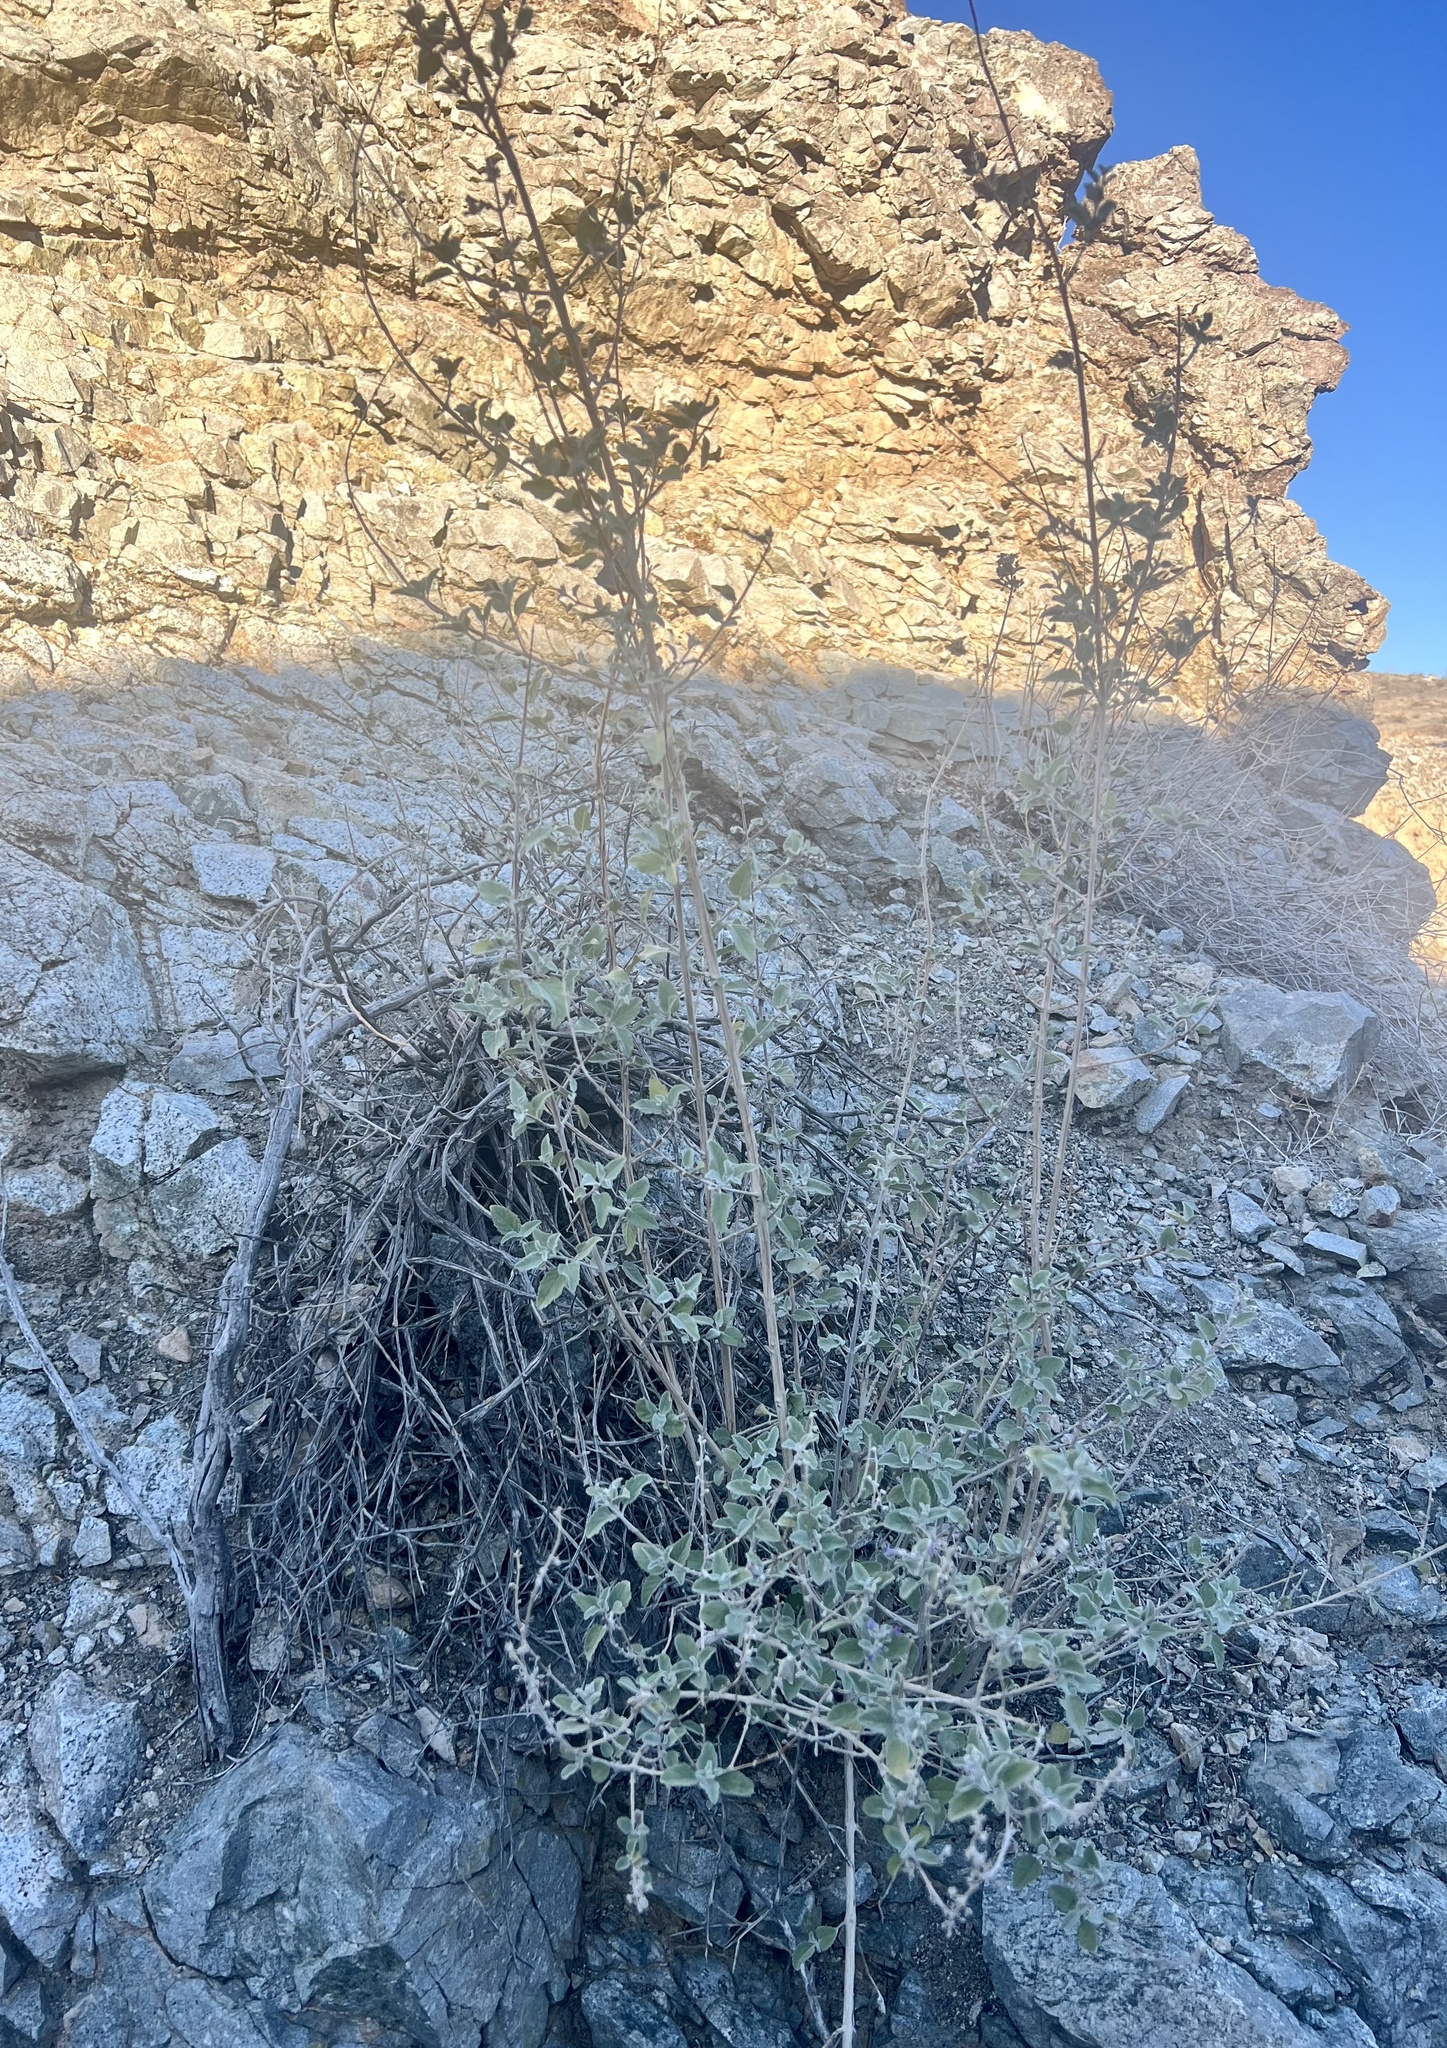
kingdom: Plantae
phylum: Tracheophyta
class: Magnoliopsida
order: Lamiales
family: Lamiaceae
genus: Condea
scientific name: Condea emoryi
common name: Chia
